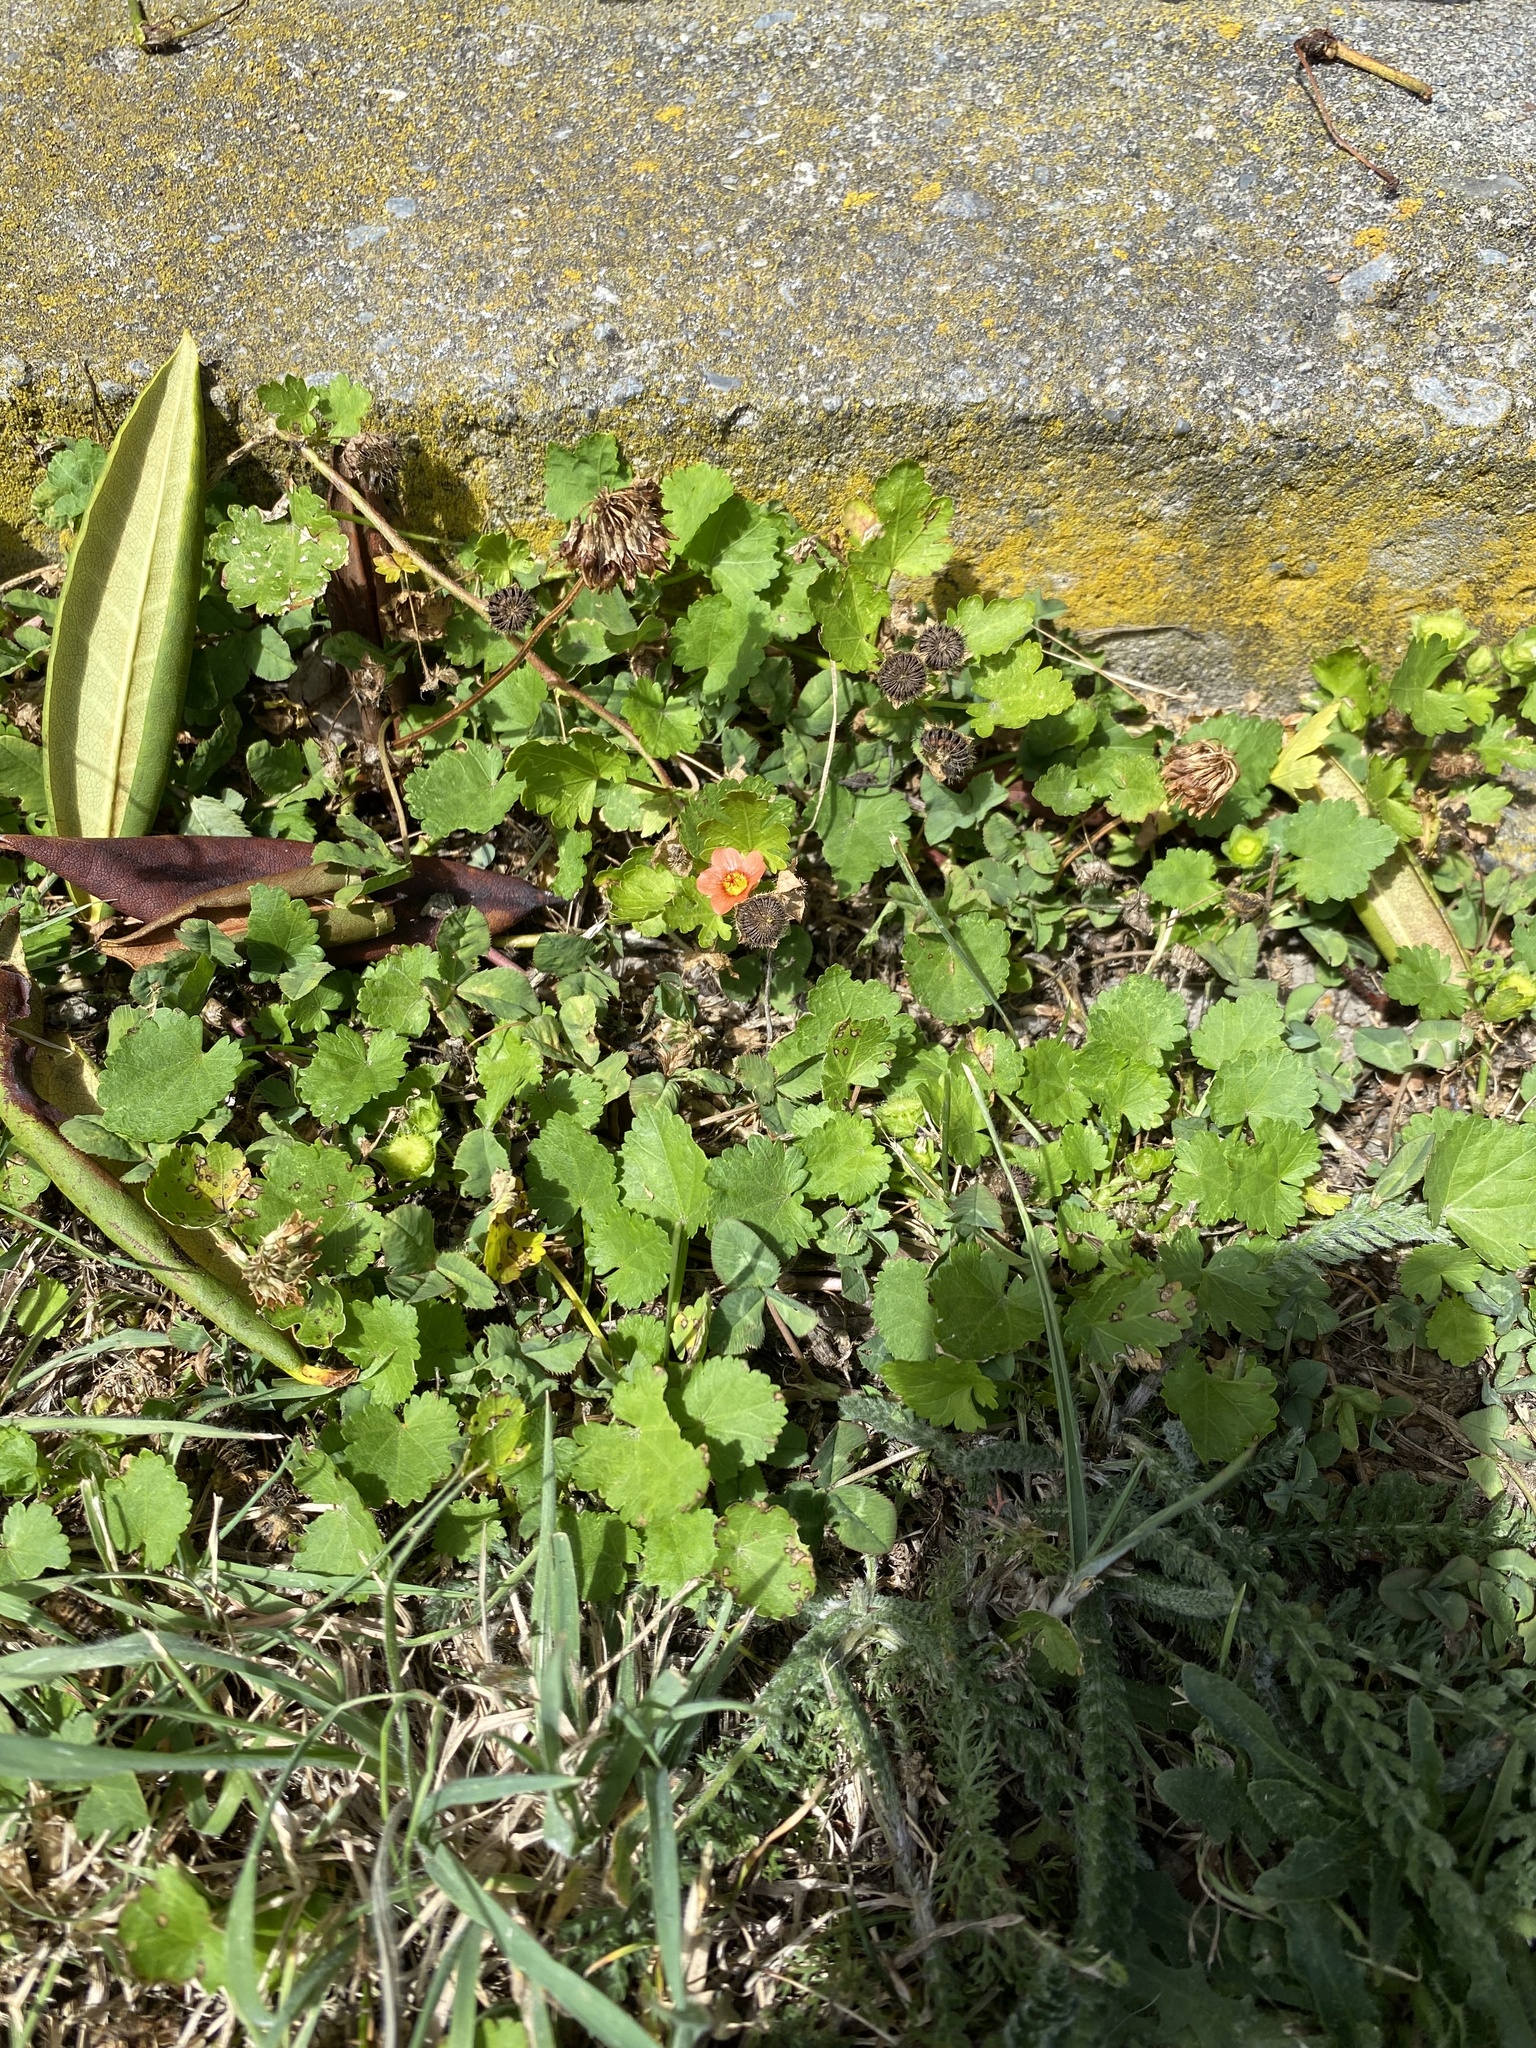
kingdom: Plantae
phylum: Tracheophyta
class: Magnoliopsida
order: Malvales
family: Malvaceae
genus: Modiola
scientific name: Modiola caroliniana
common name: Carolina bristlemallow
